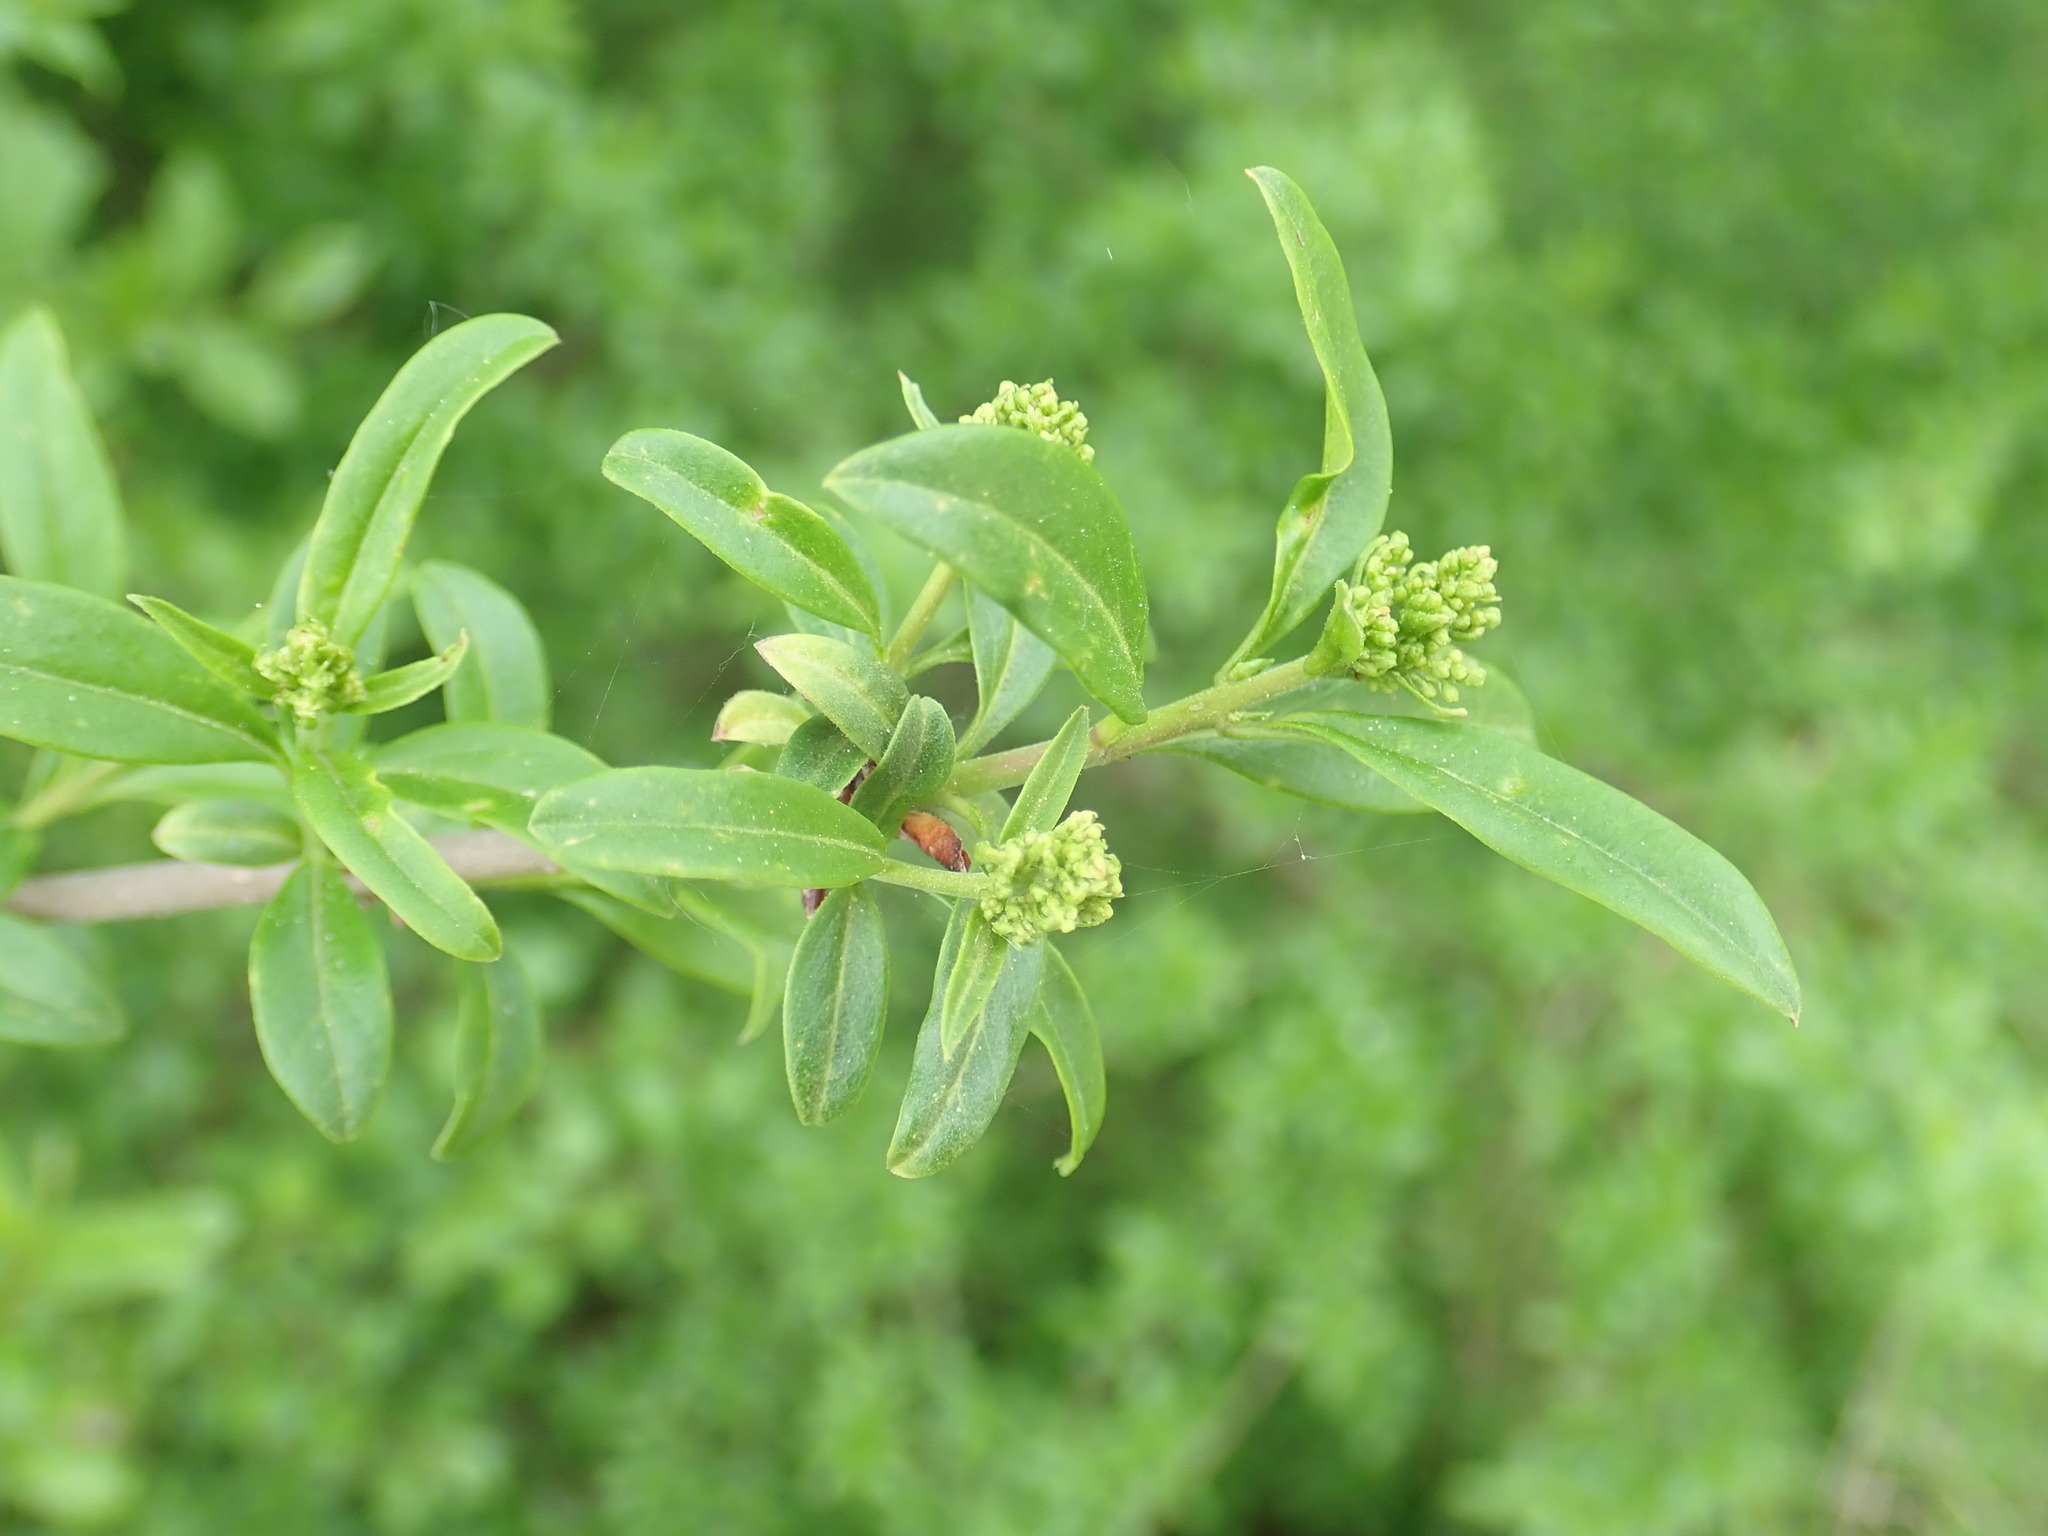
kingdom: Plantae
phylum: Tracheophyta
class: Magnoliopsida
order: Lamiales
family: Oleaceae
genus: Ligustrum
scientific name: Ligustrum vulgare
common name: Wild privet
